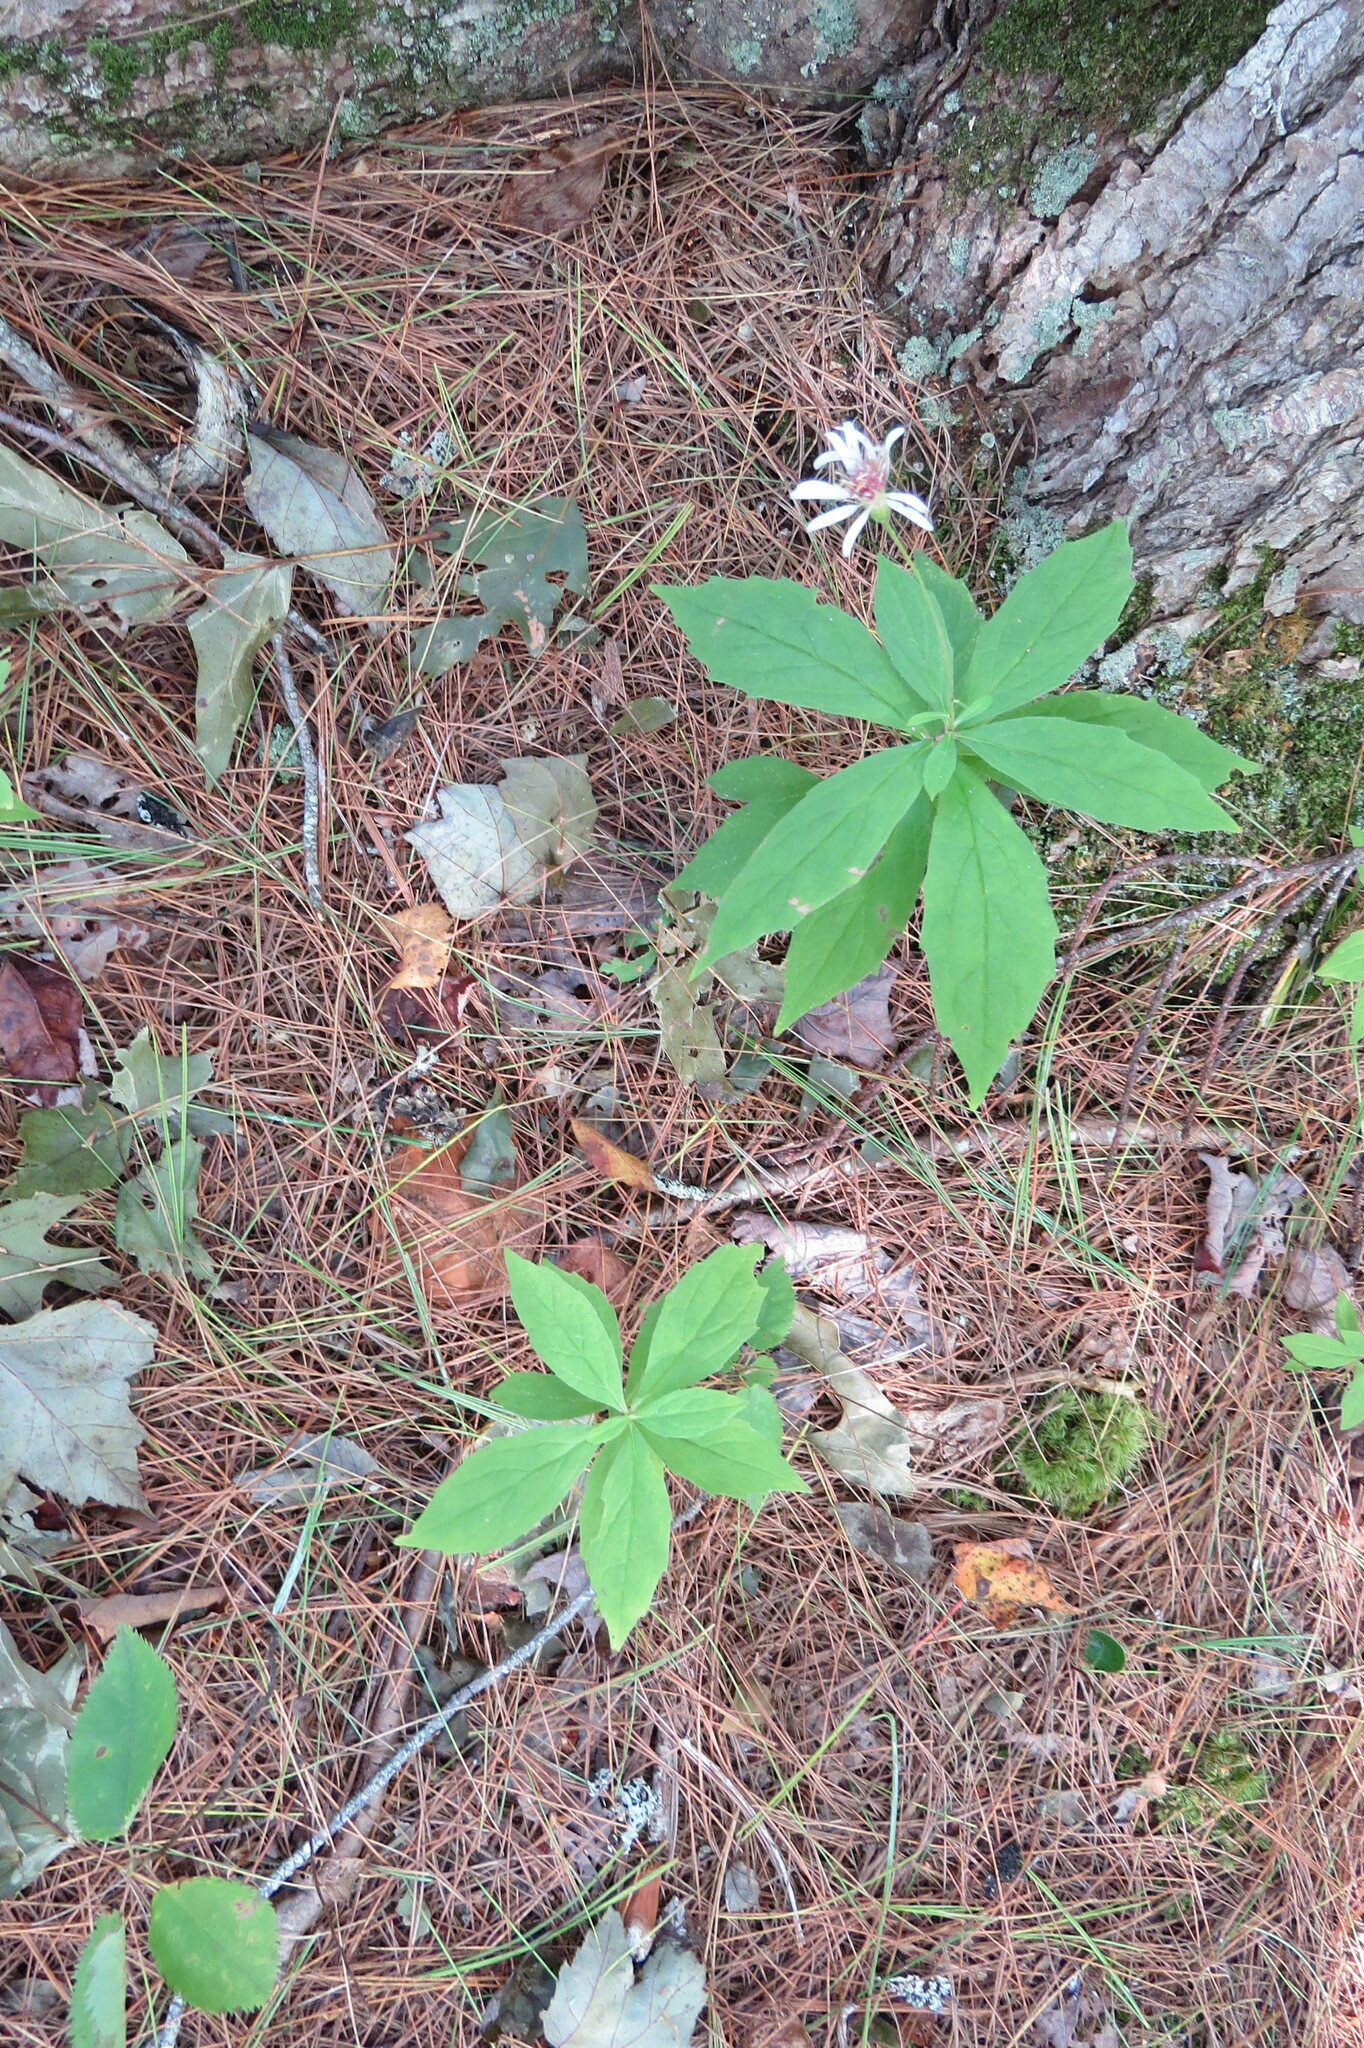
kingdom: Plantae
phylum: Tracheophyta
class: Magnoliopsida
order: Asterales
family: Asteraceae
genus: Oclemena
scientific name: Oclemena acuminata
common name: Mountain aster
